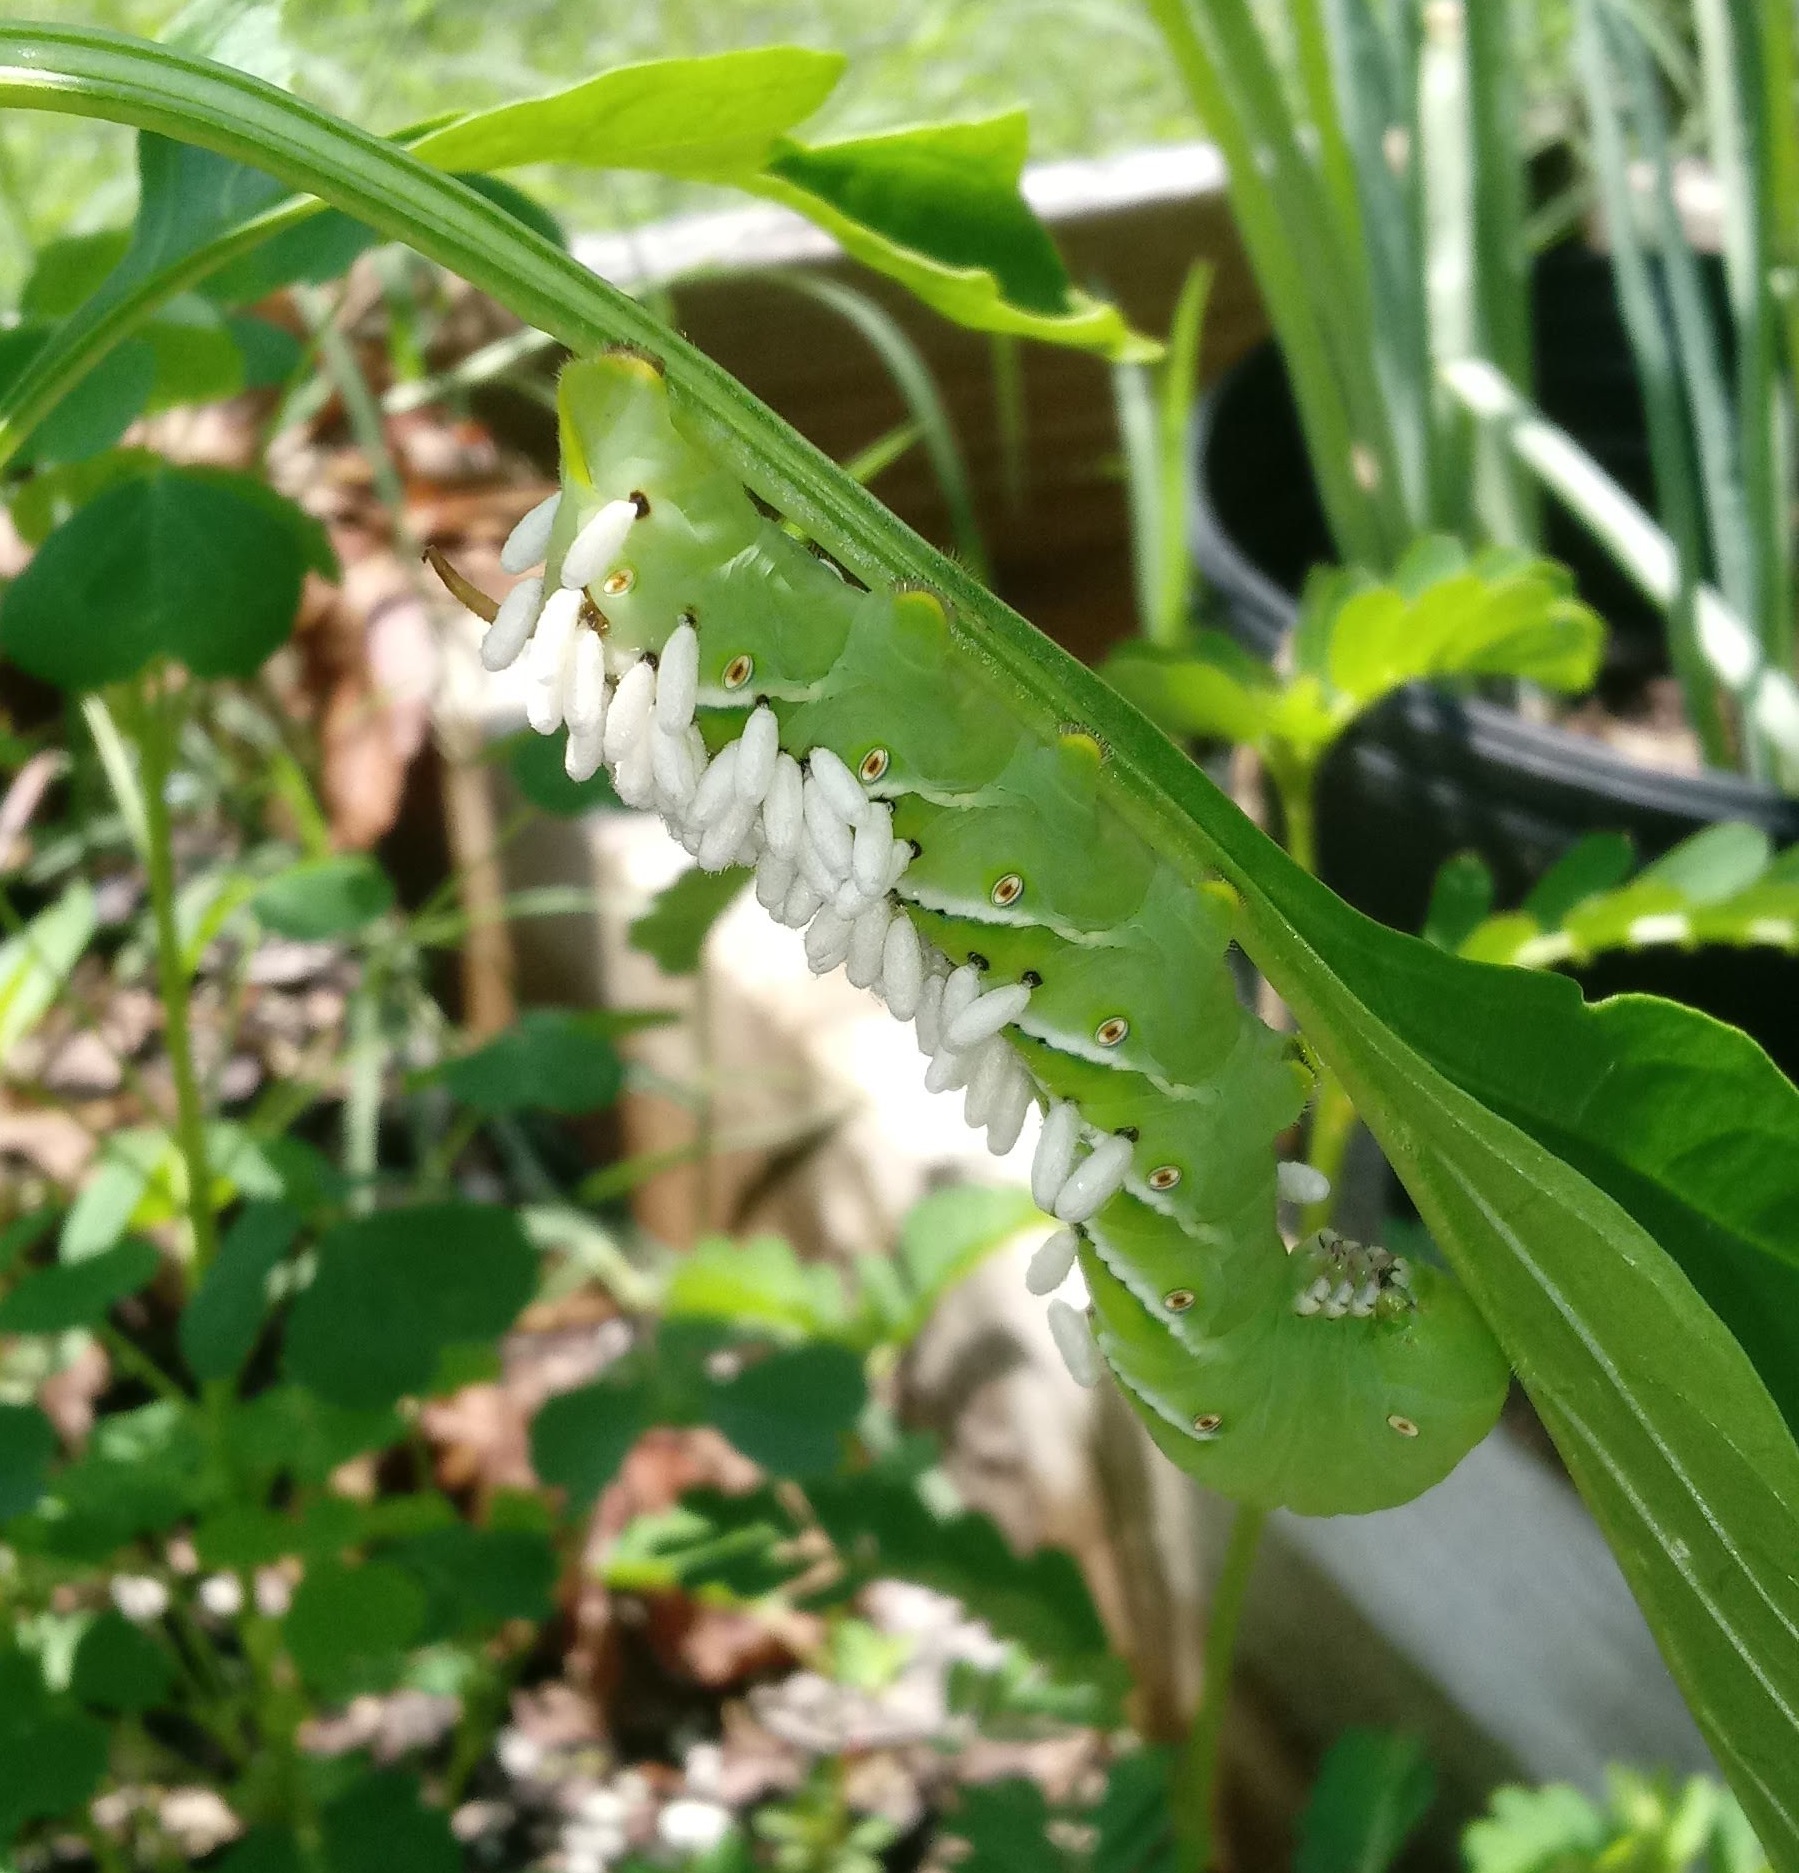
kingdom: Animalia
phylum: Arthropoda
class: Insecta
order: Lepidoptera
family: Sphingidae
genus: Manduca
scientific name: Manduca sexta
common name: Carolina sphinx
